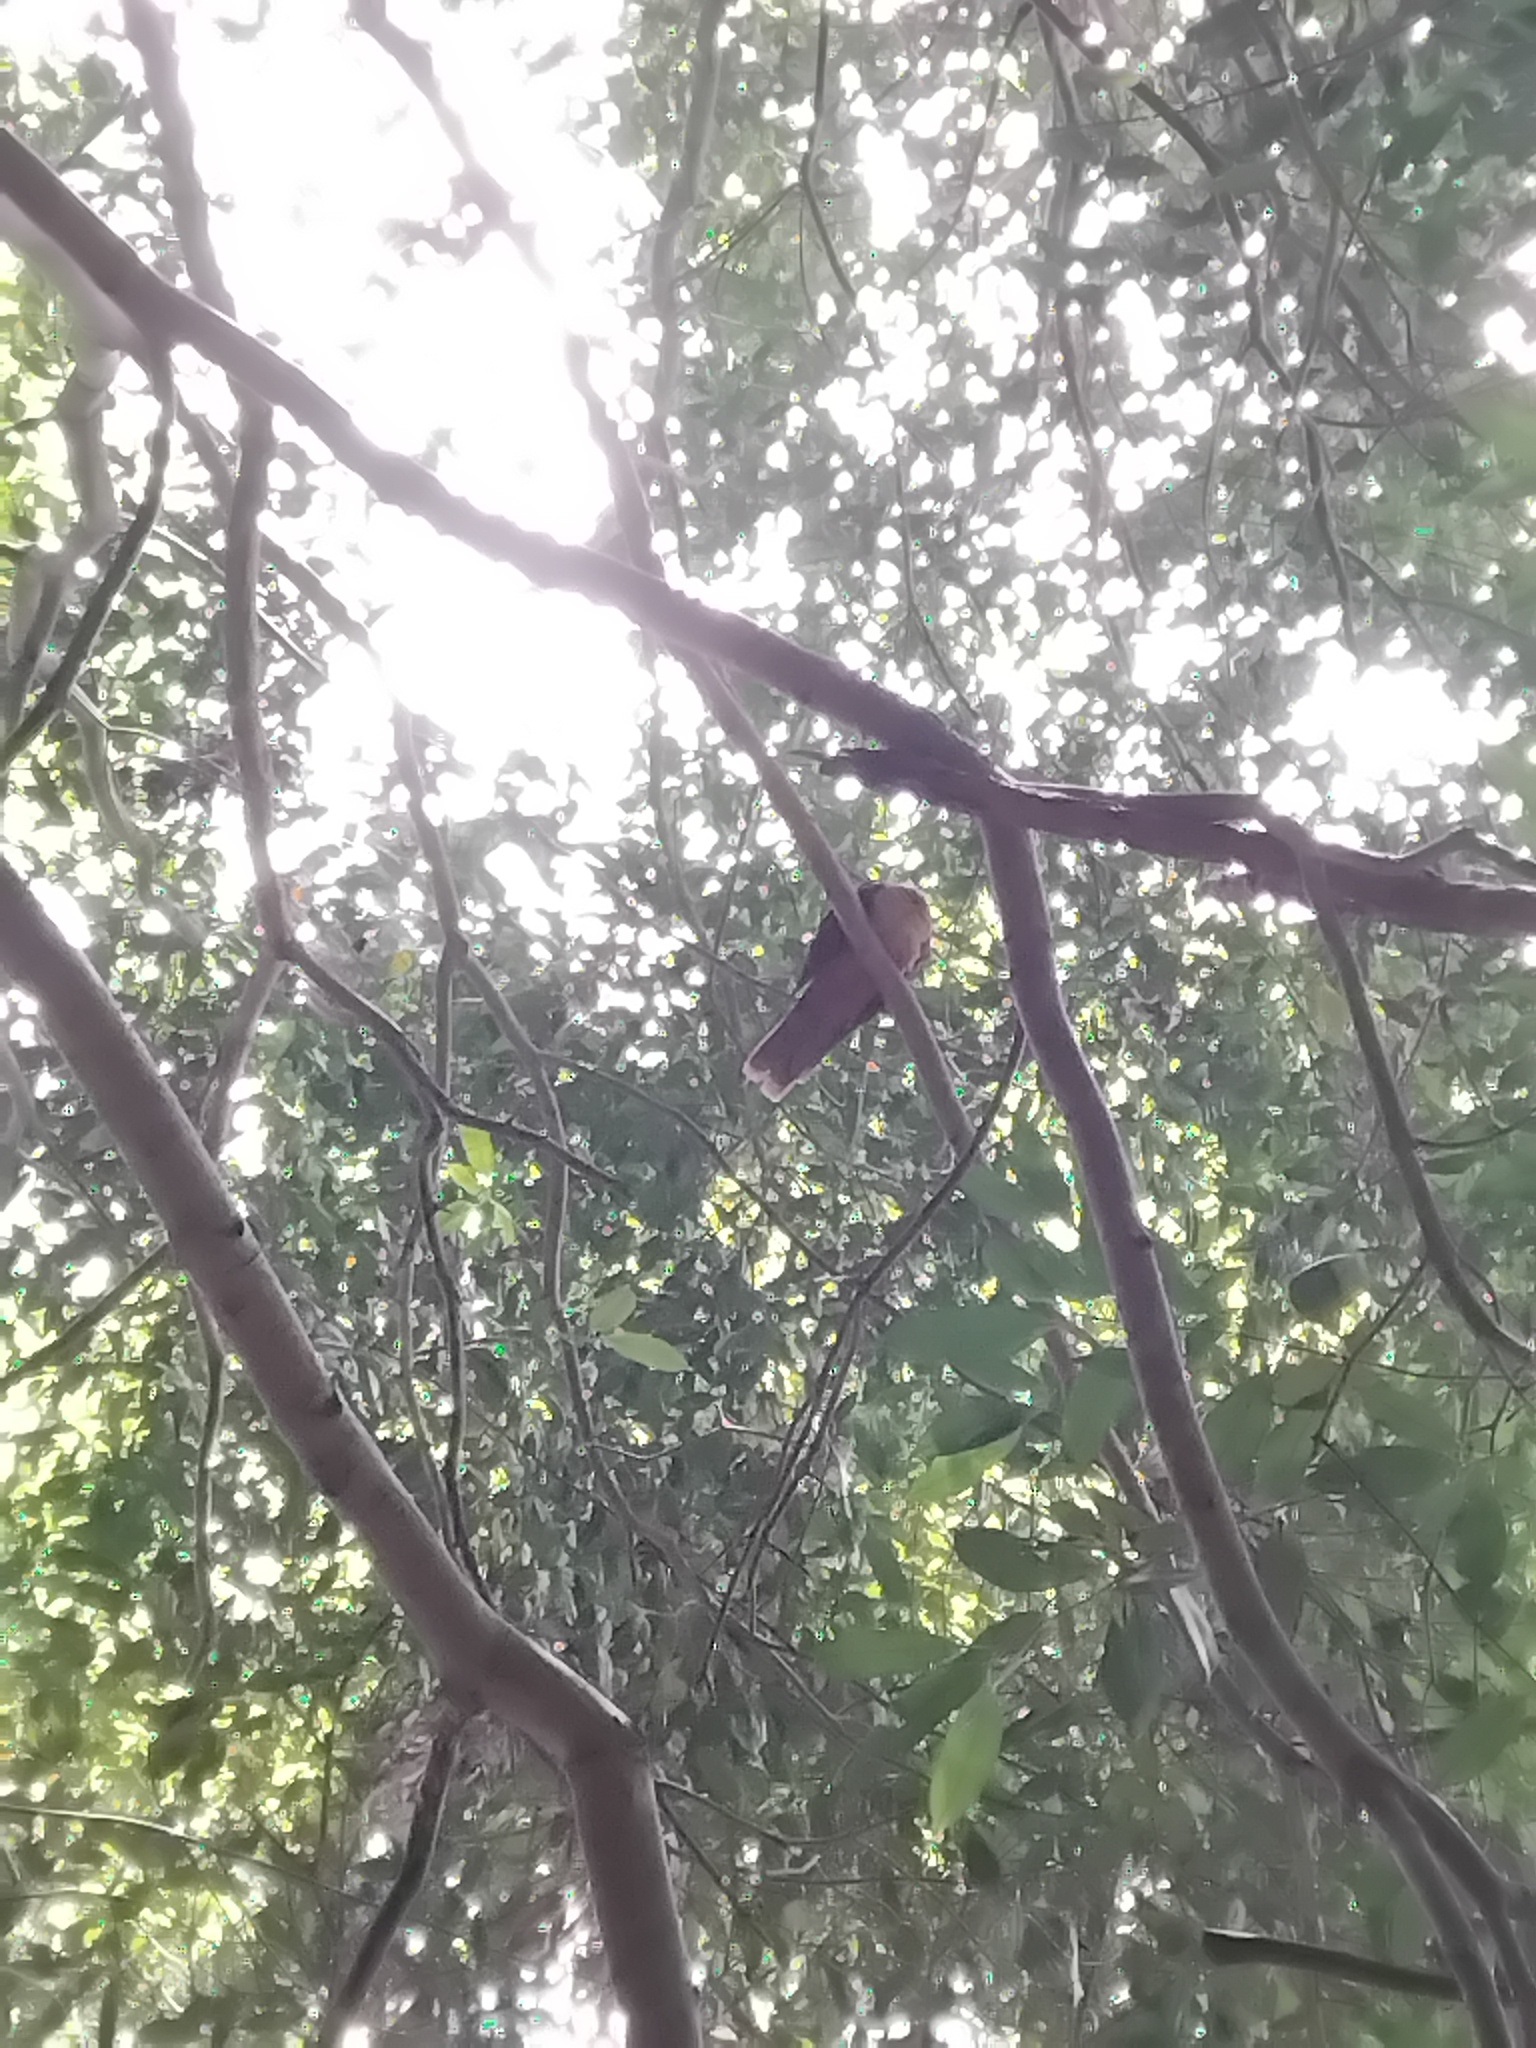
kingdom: Animalia
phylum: Chordata
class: Aves
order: Columbiformes
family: Columbidae
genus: Macropygia
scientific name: Macropygia phasianella
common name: Brown cuckoo-dove
